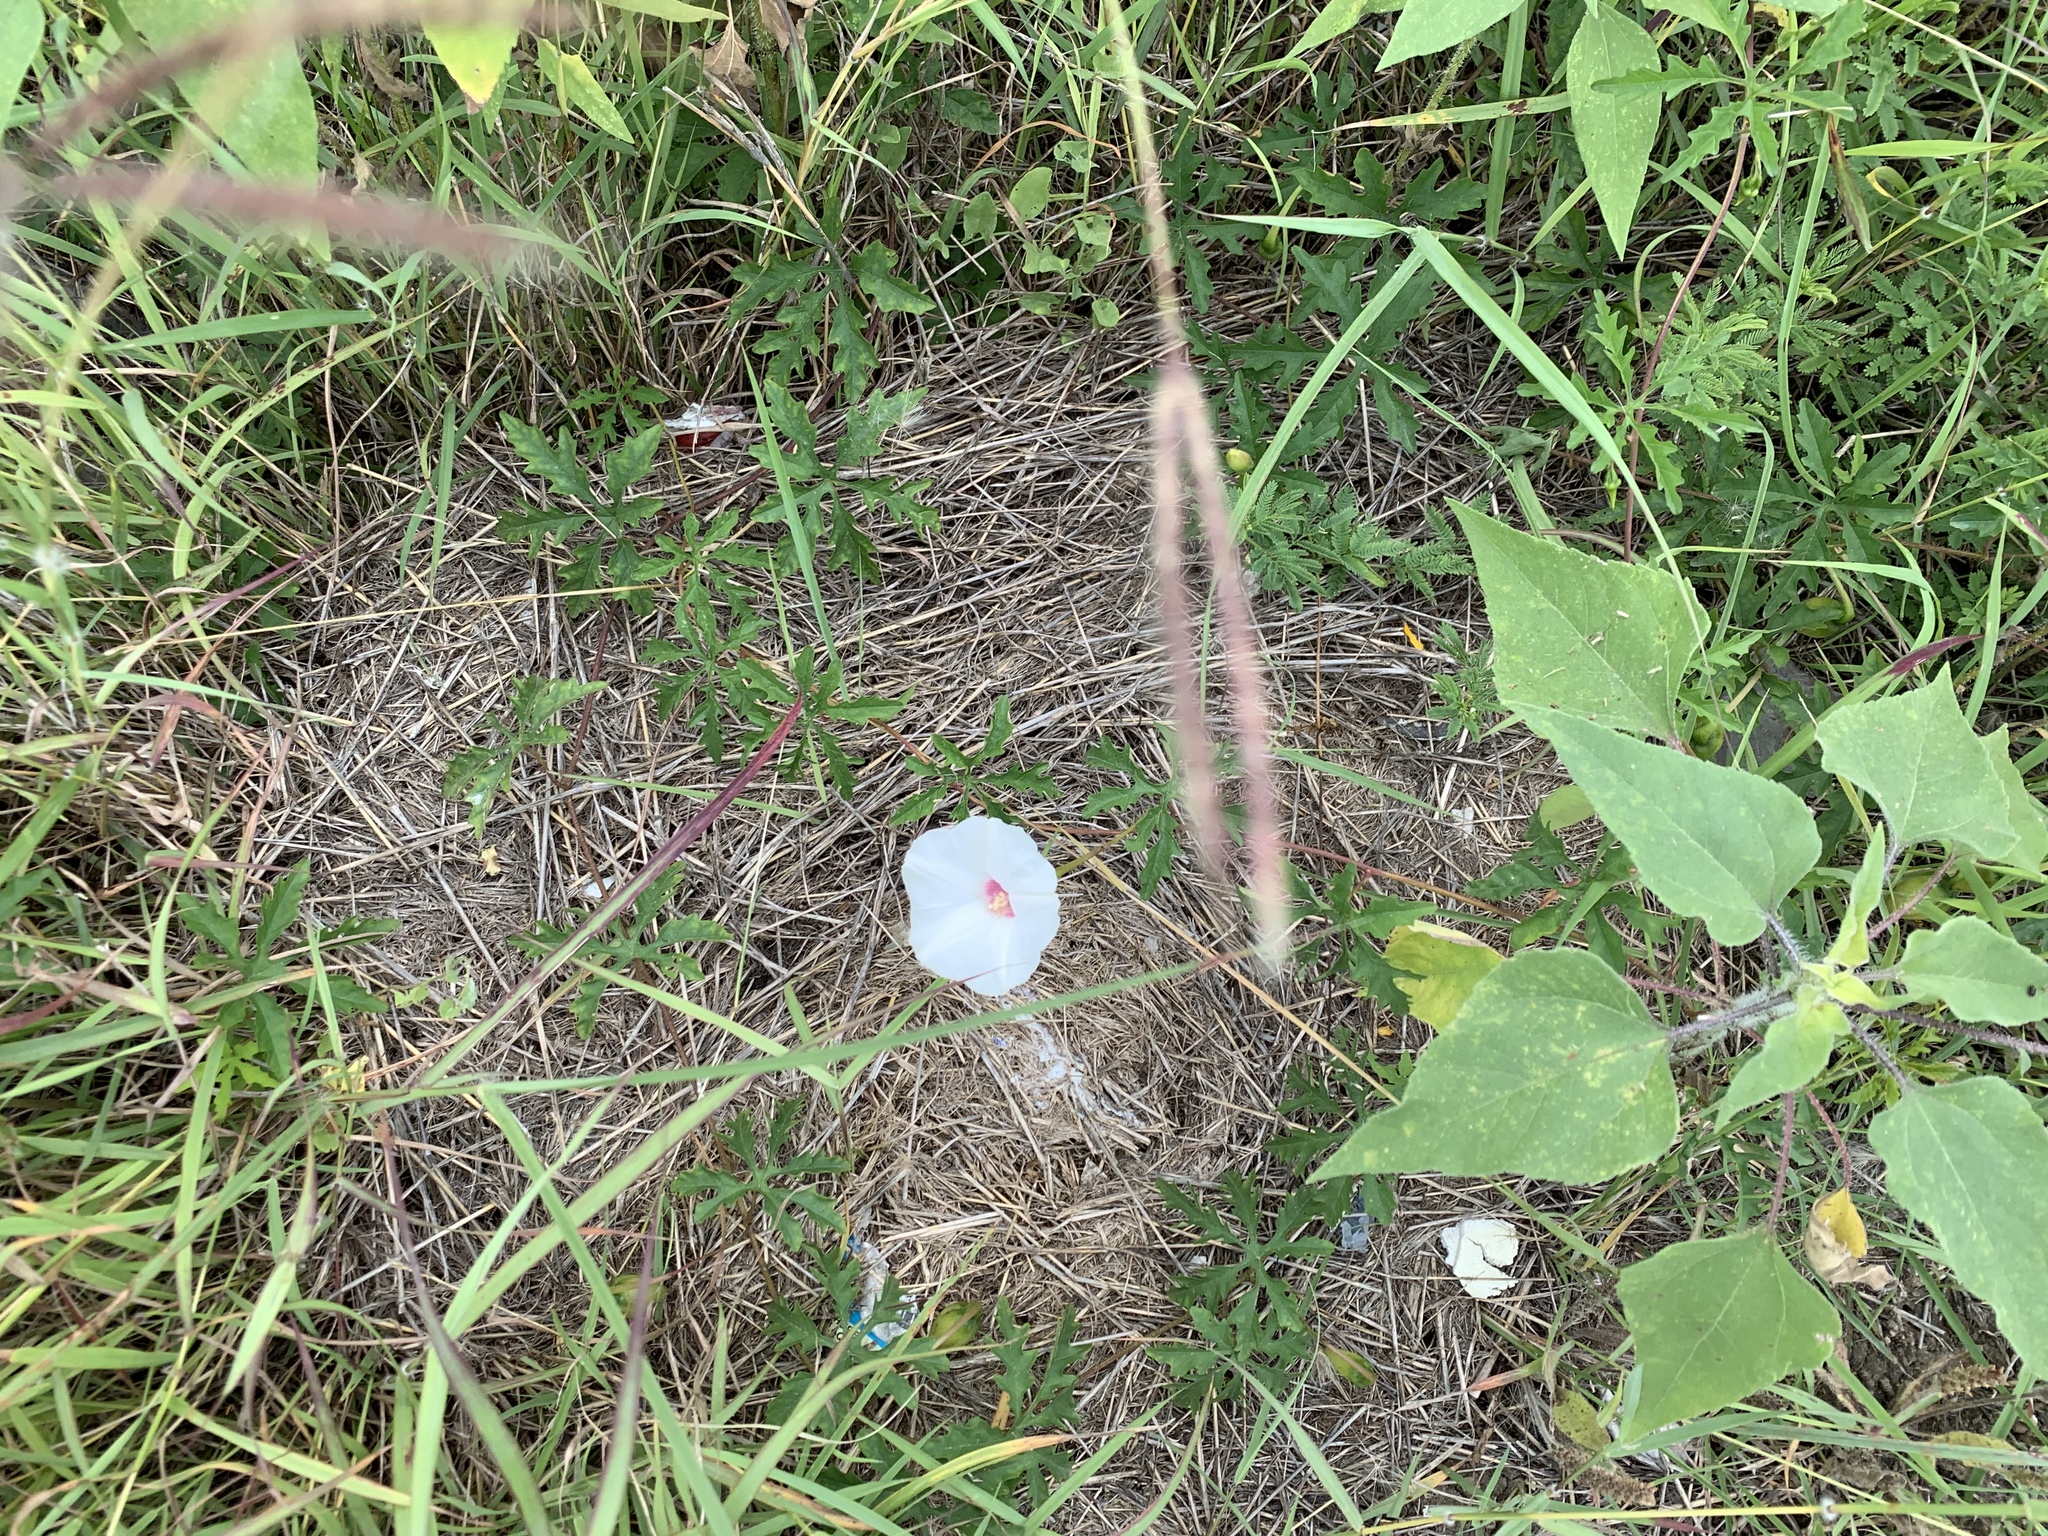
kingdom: Plantae
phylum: Tracheophyta
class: Magnoliopsida
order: Solanales
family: Convolvulaceae
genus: Distimake
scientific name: Distimake dissectus
